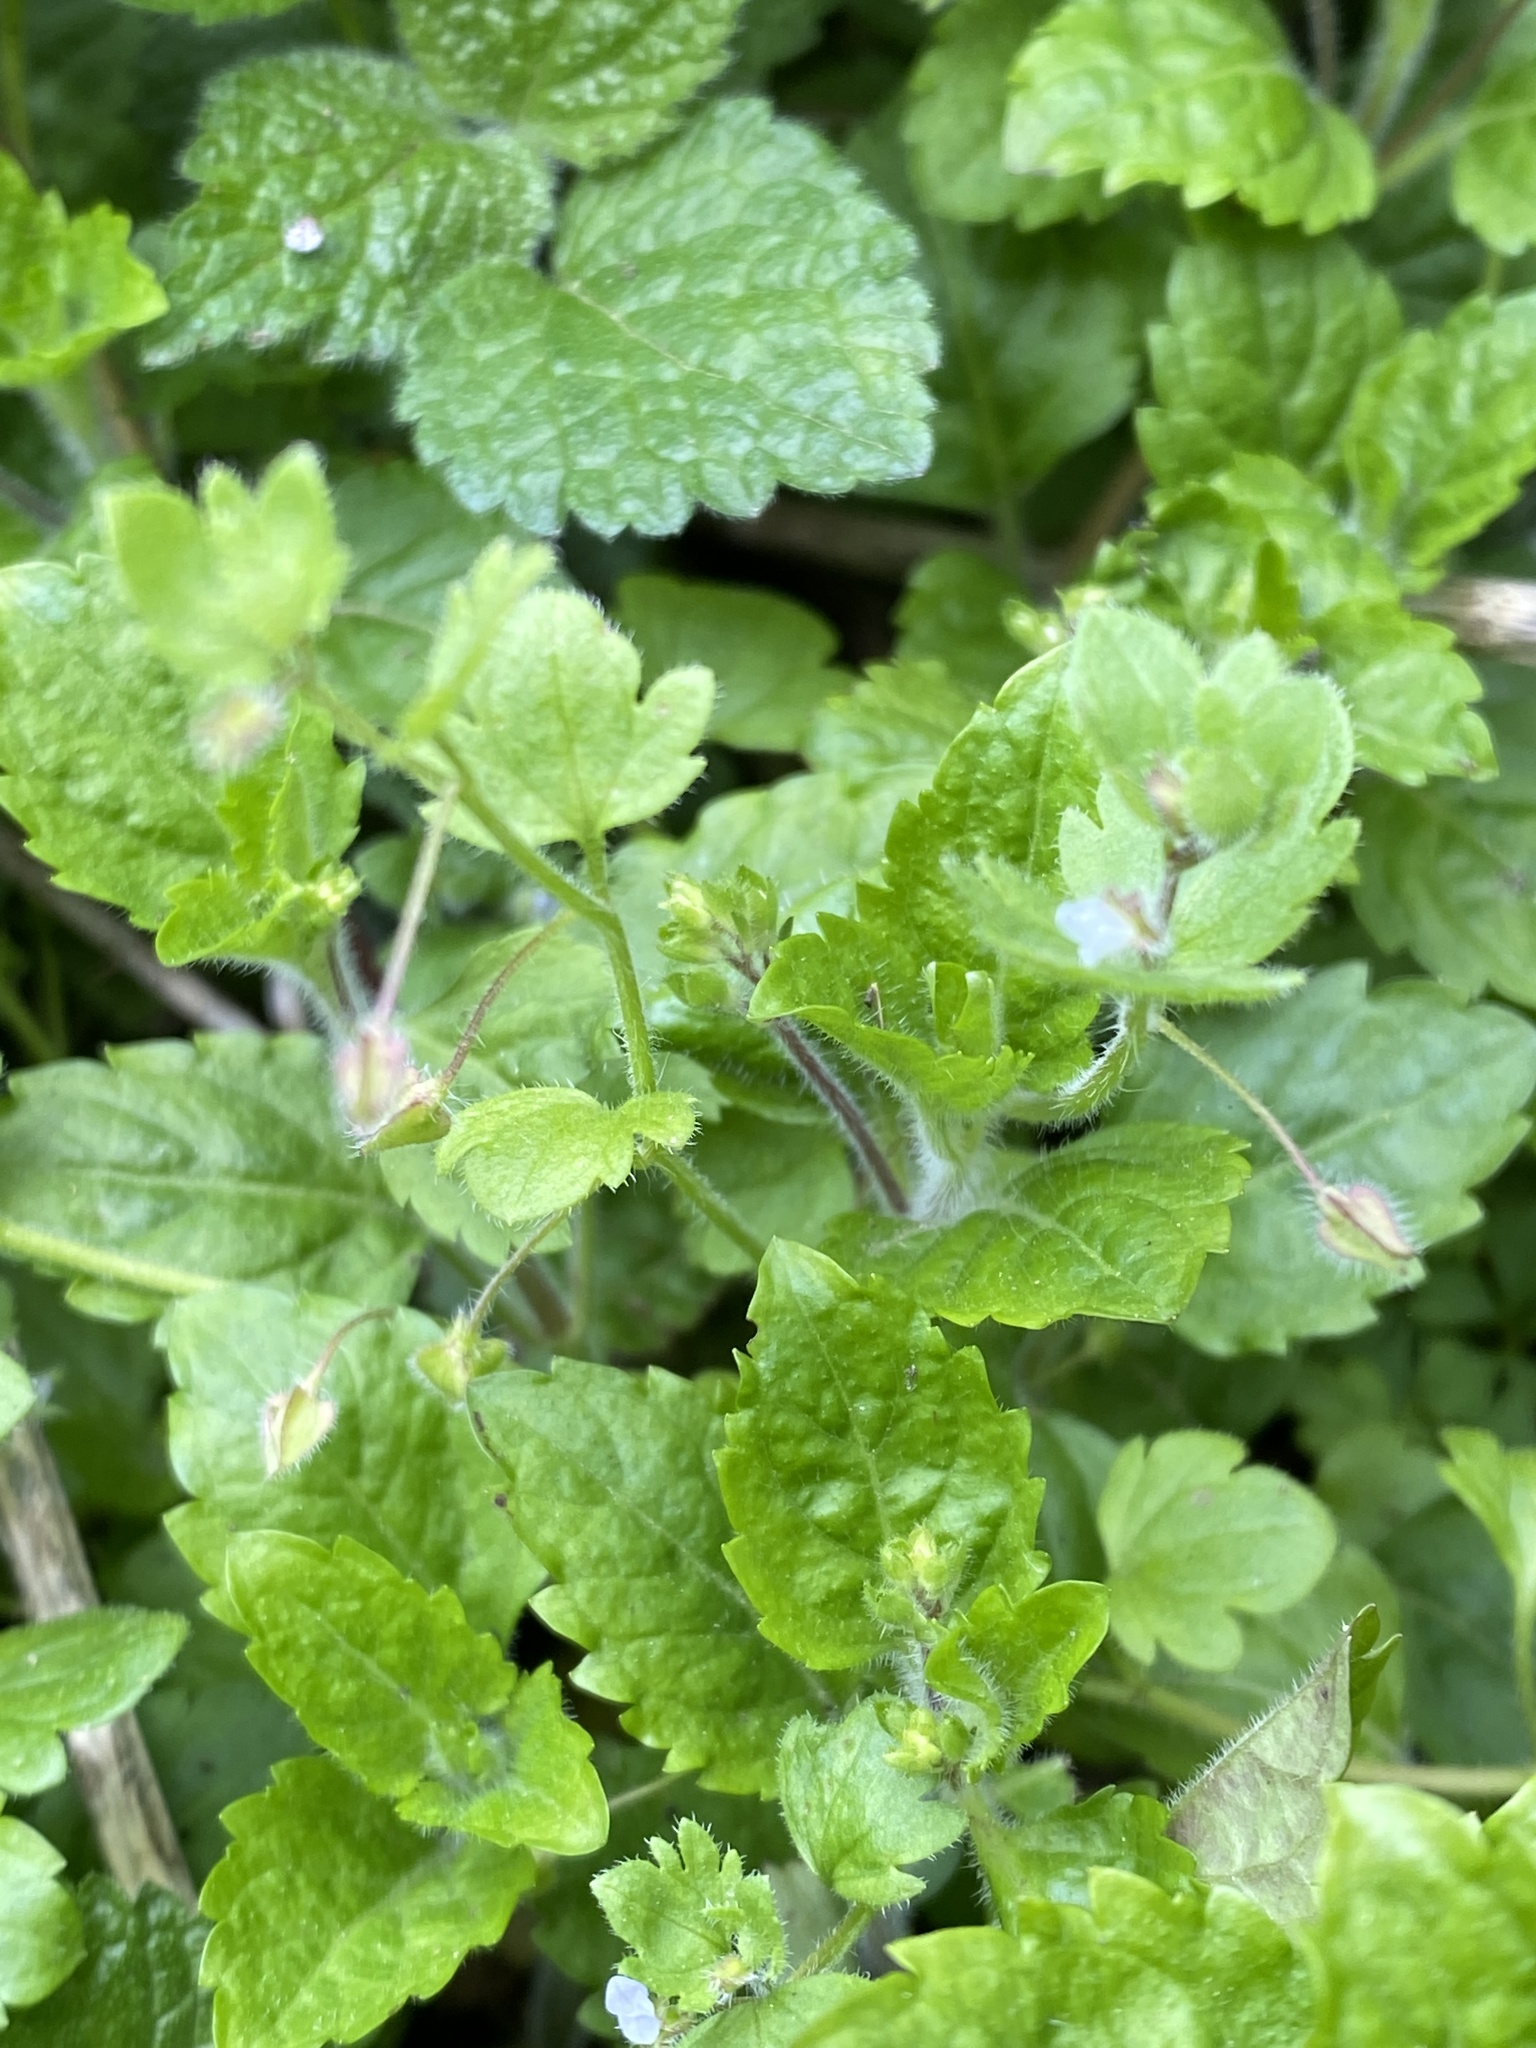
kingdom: Plantae
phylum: Tracheophyta
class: Magnoliopsida
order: Lamiales
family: Plantaginaceae
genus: Veronica
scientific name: Veronica montana
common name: Wood speedwell
